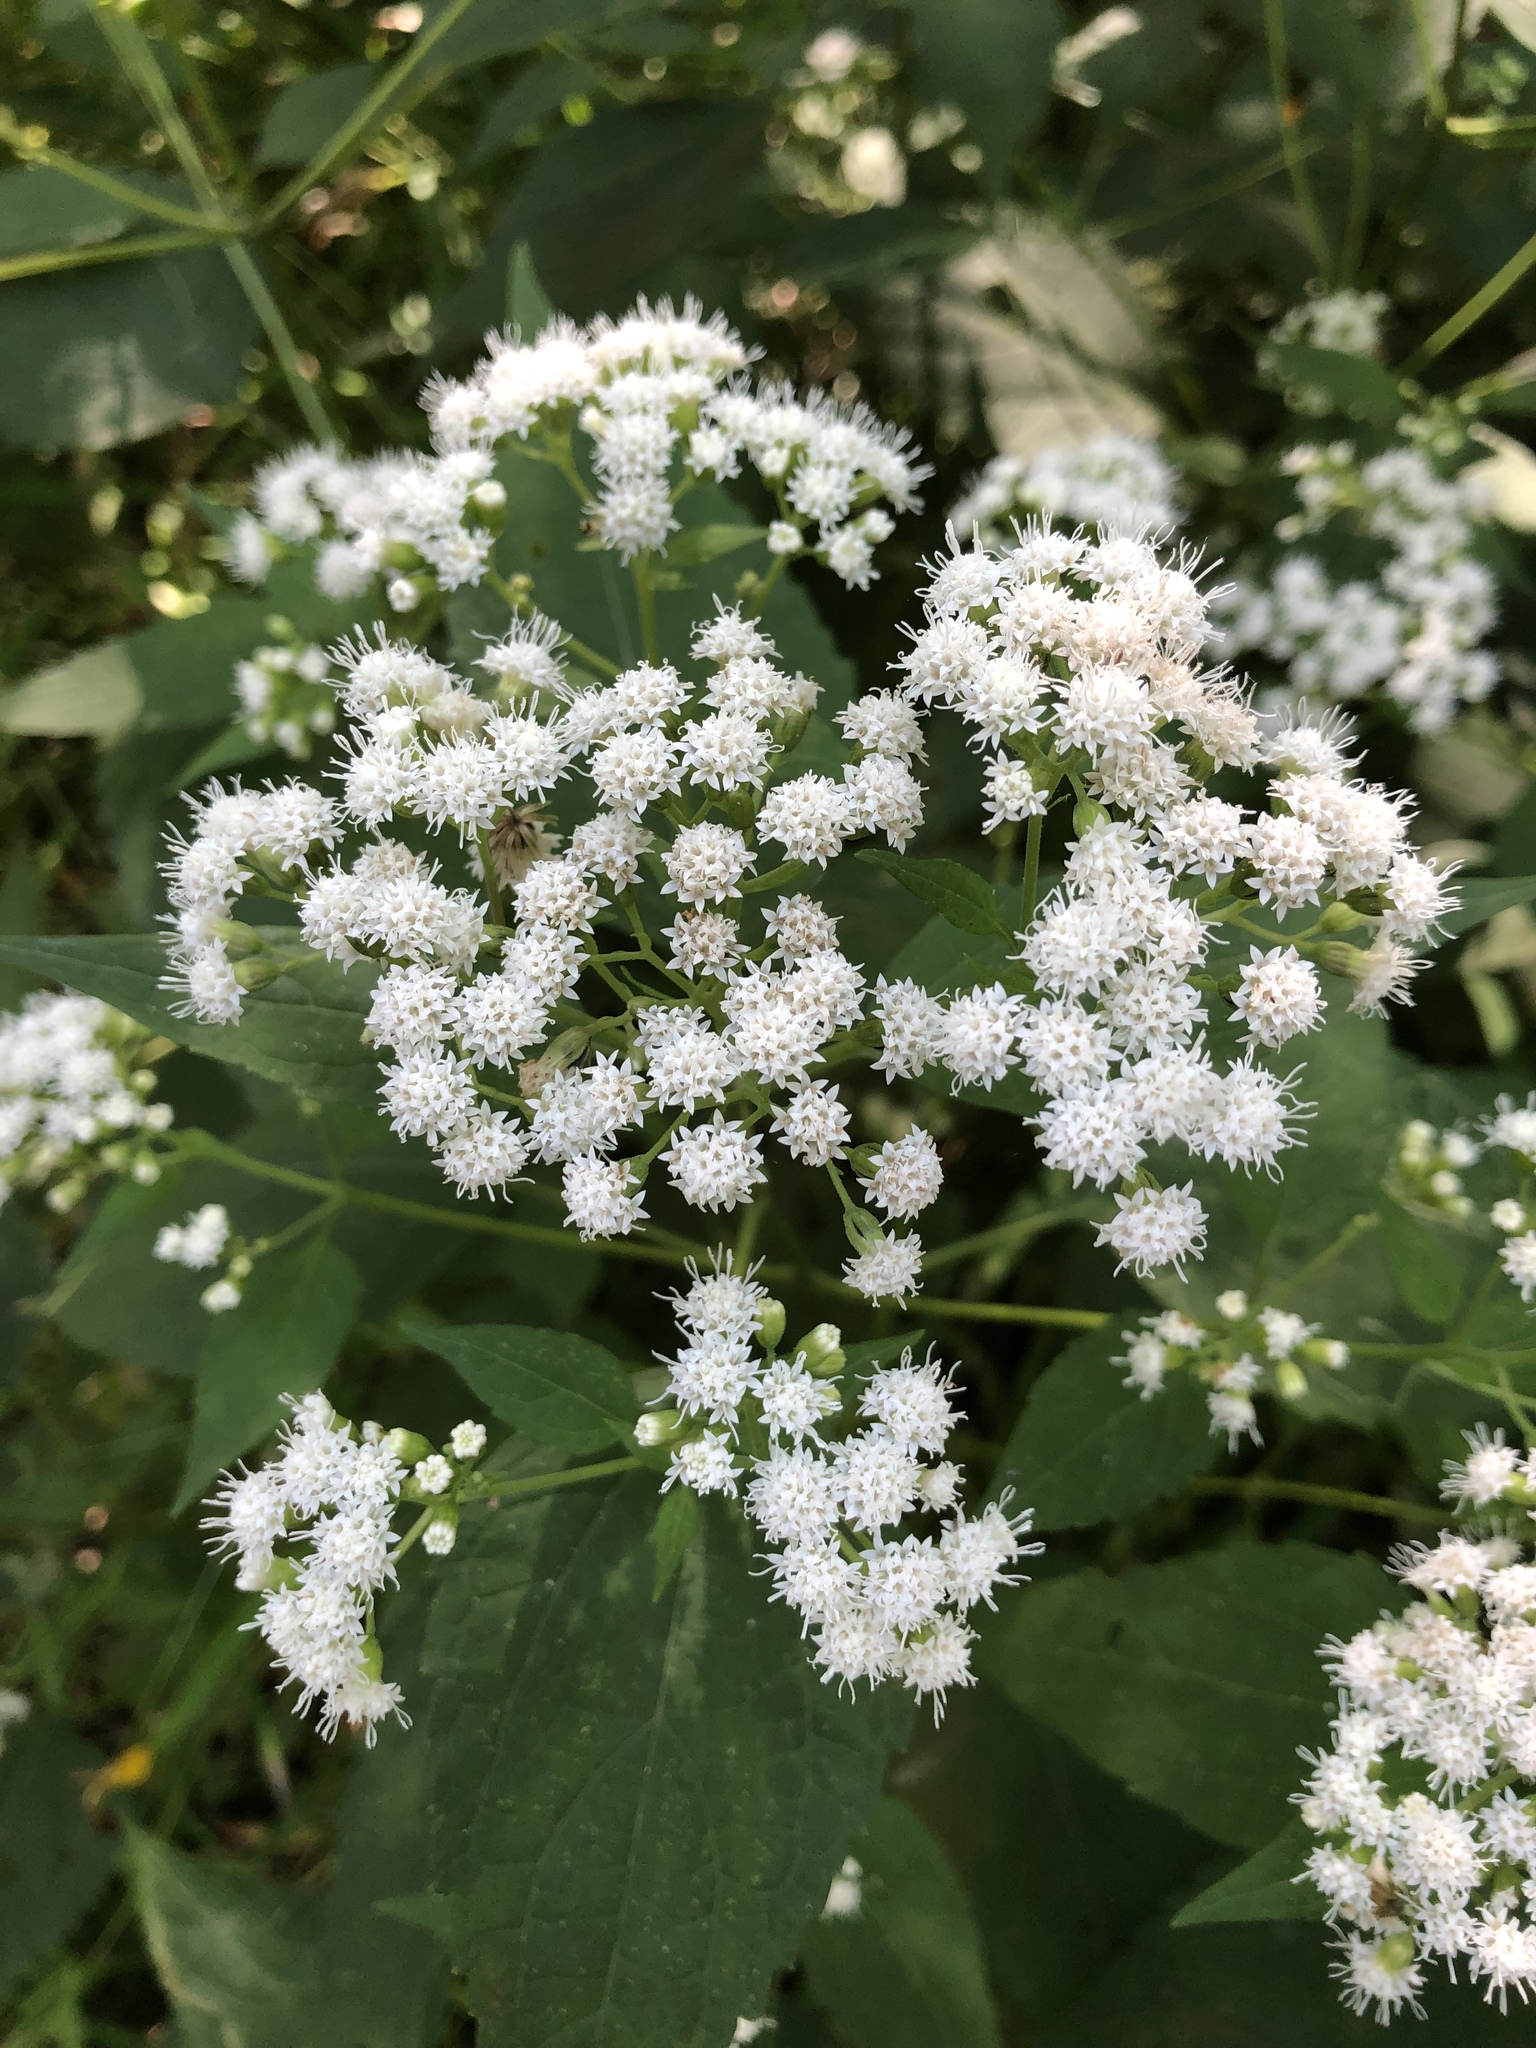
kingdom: Plantae
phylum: Tracheophyta
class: Magnoliopsida
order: Asterales
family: Asteraceae
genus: Ageratina
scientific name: Ageratina altissima
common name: White snakeroot
